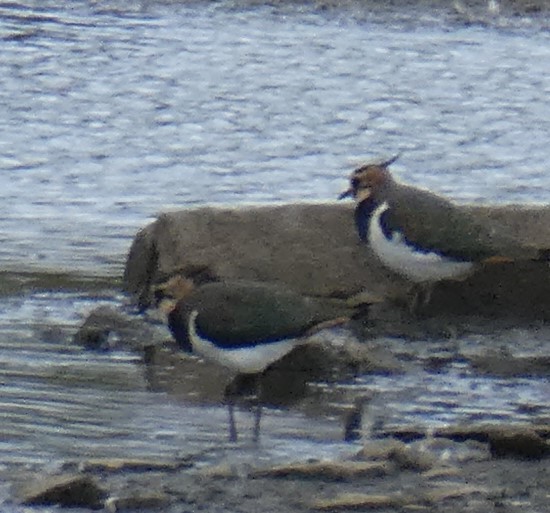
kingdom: Animalia
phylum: Chordata
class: Aves
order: Charadriiformes
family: Charadriidae
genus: Vanellus
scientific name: Vanellus vanellus
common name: Northern lapwing
